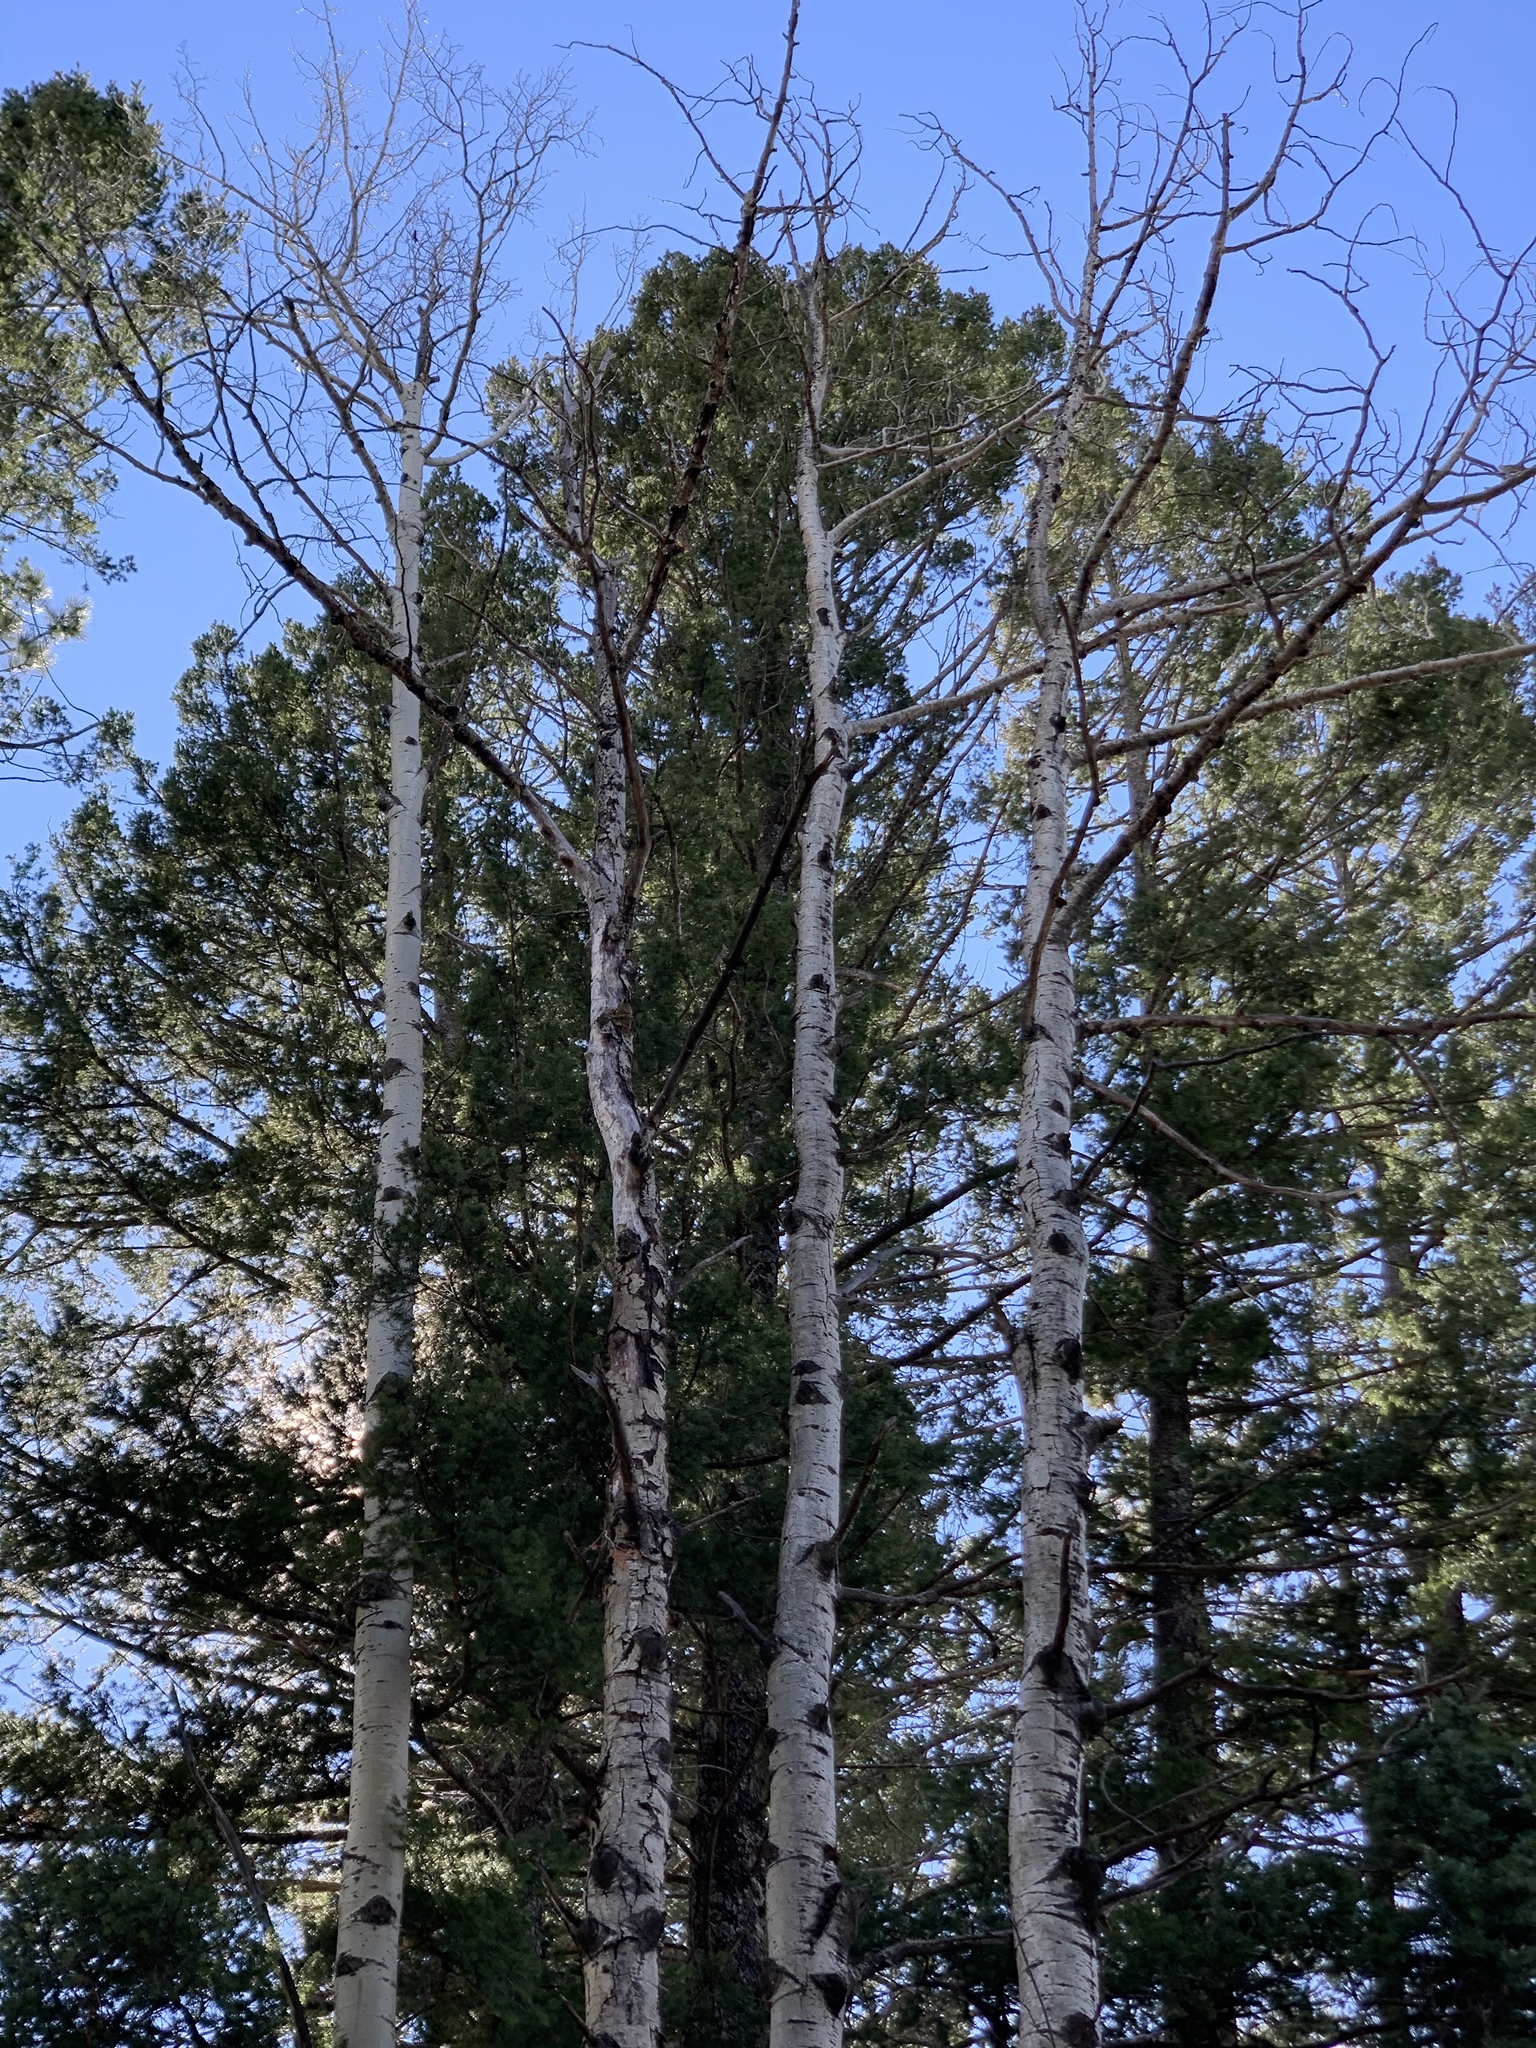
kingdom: Plantae
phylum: Tracheophyta
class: Magnoliopsida
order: Malpighiales
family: Salicaceae
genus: Populus
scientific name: Populus tremuloides
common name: Quaking aspen
